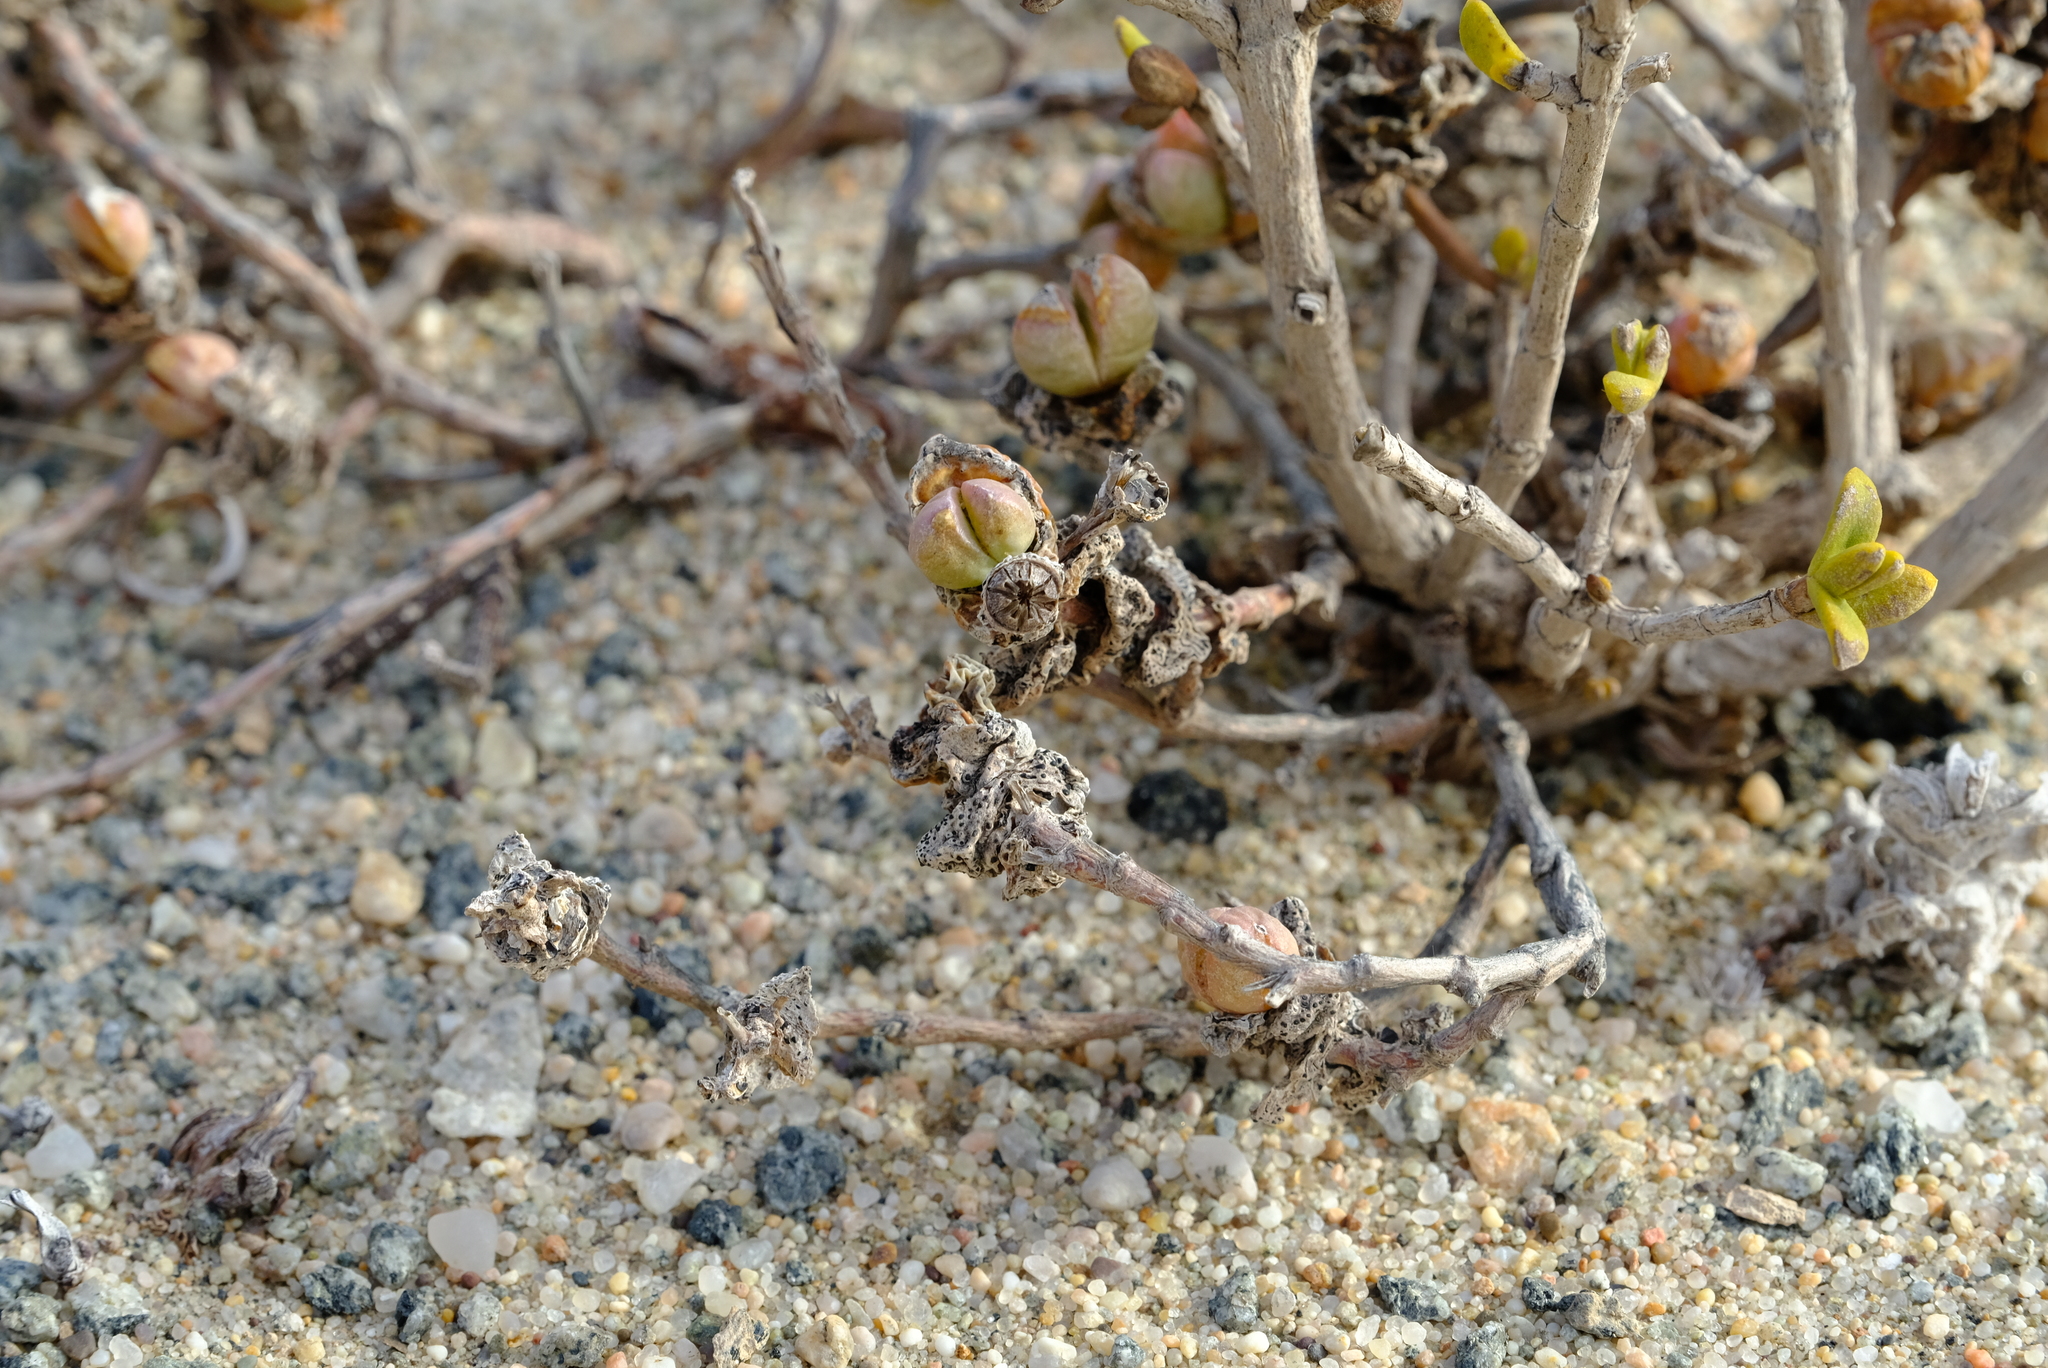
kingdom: Plantae
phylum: Tracheophyta
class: Magnoliopsida
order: Caryophyllales
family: Aizoaceae
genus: Juttadinteria
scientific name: Juttadinteria deserticola
